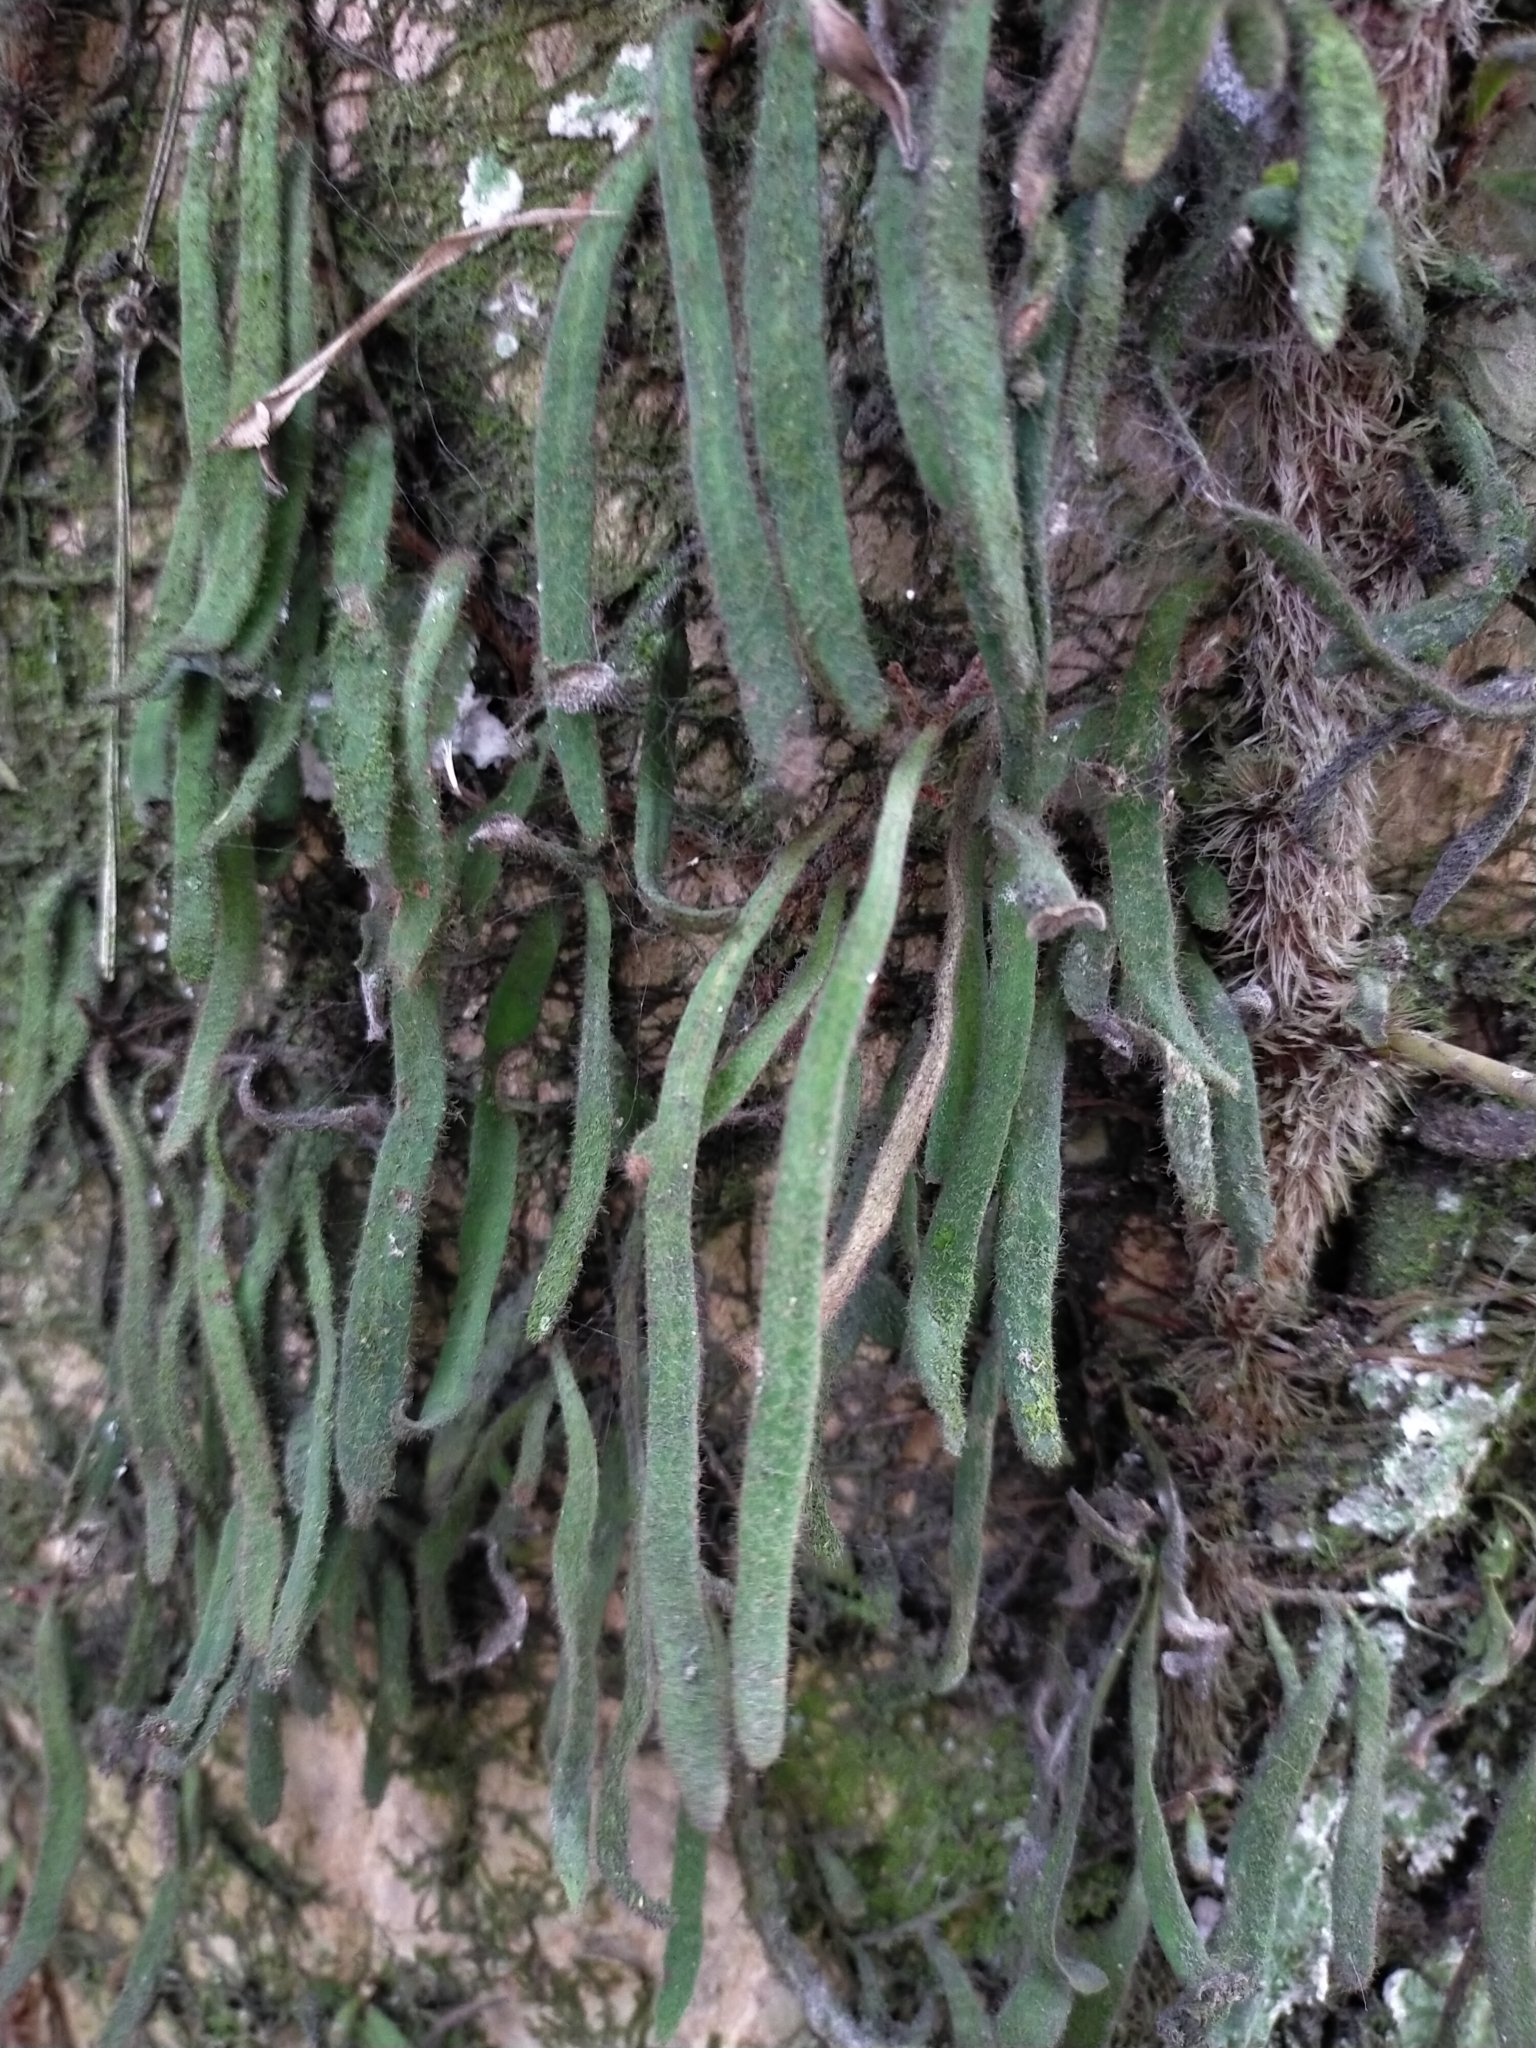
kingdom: Plantae
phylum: Tracheophyta
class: Polypodiopsida
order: Polypodiales
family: Polypodiaceae
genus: Pyrrosia
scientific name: Pyrrosia linearifolia
